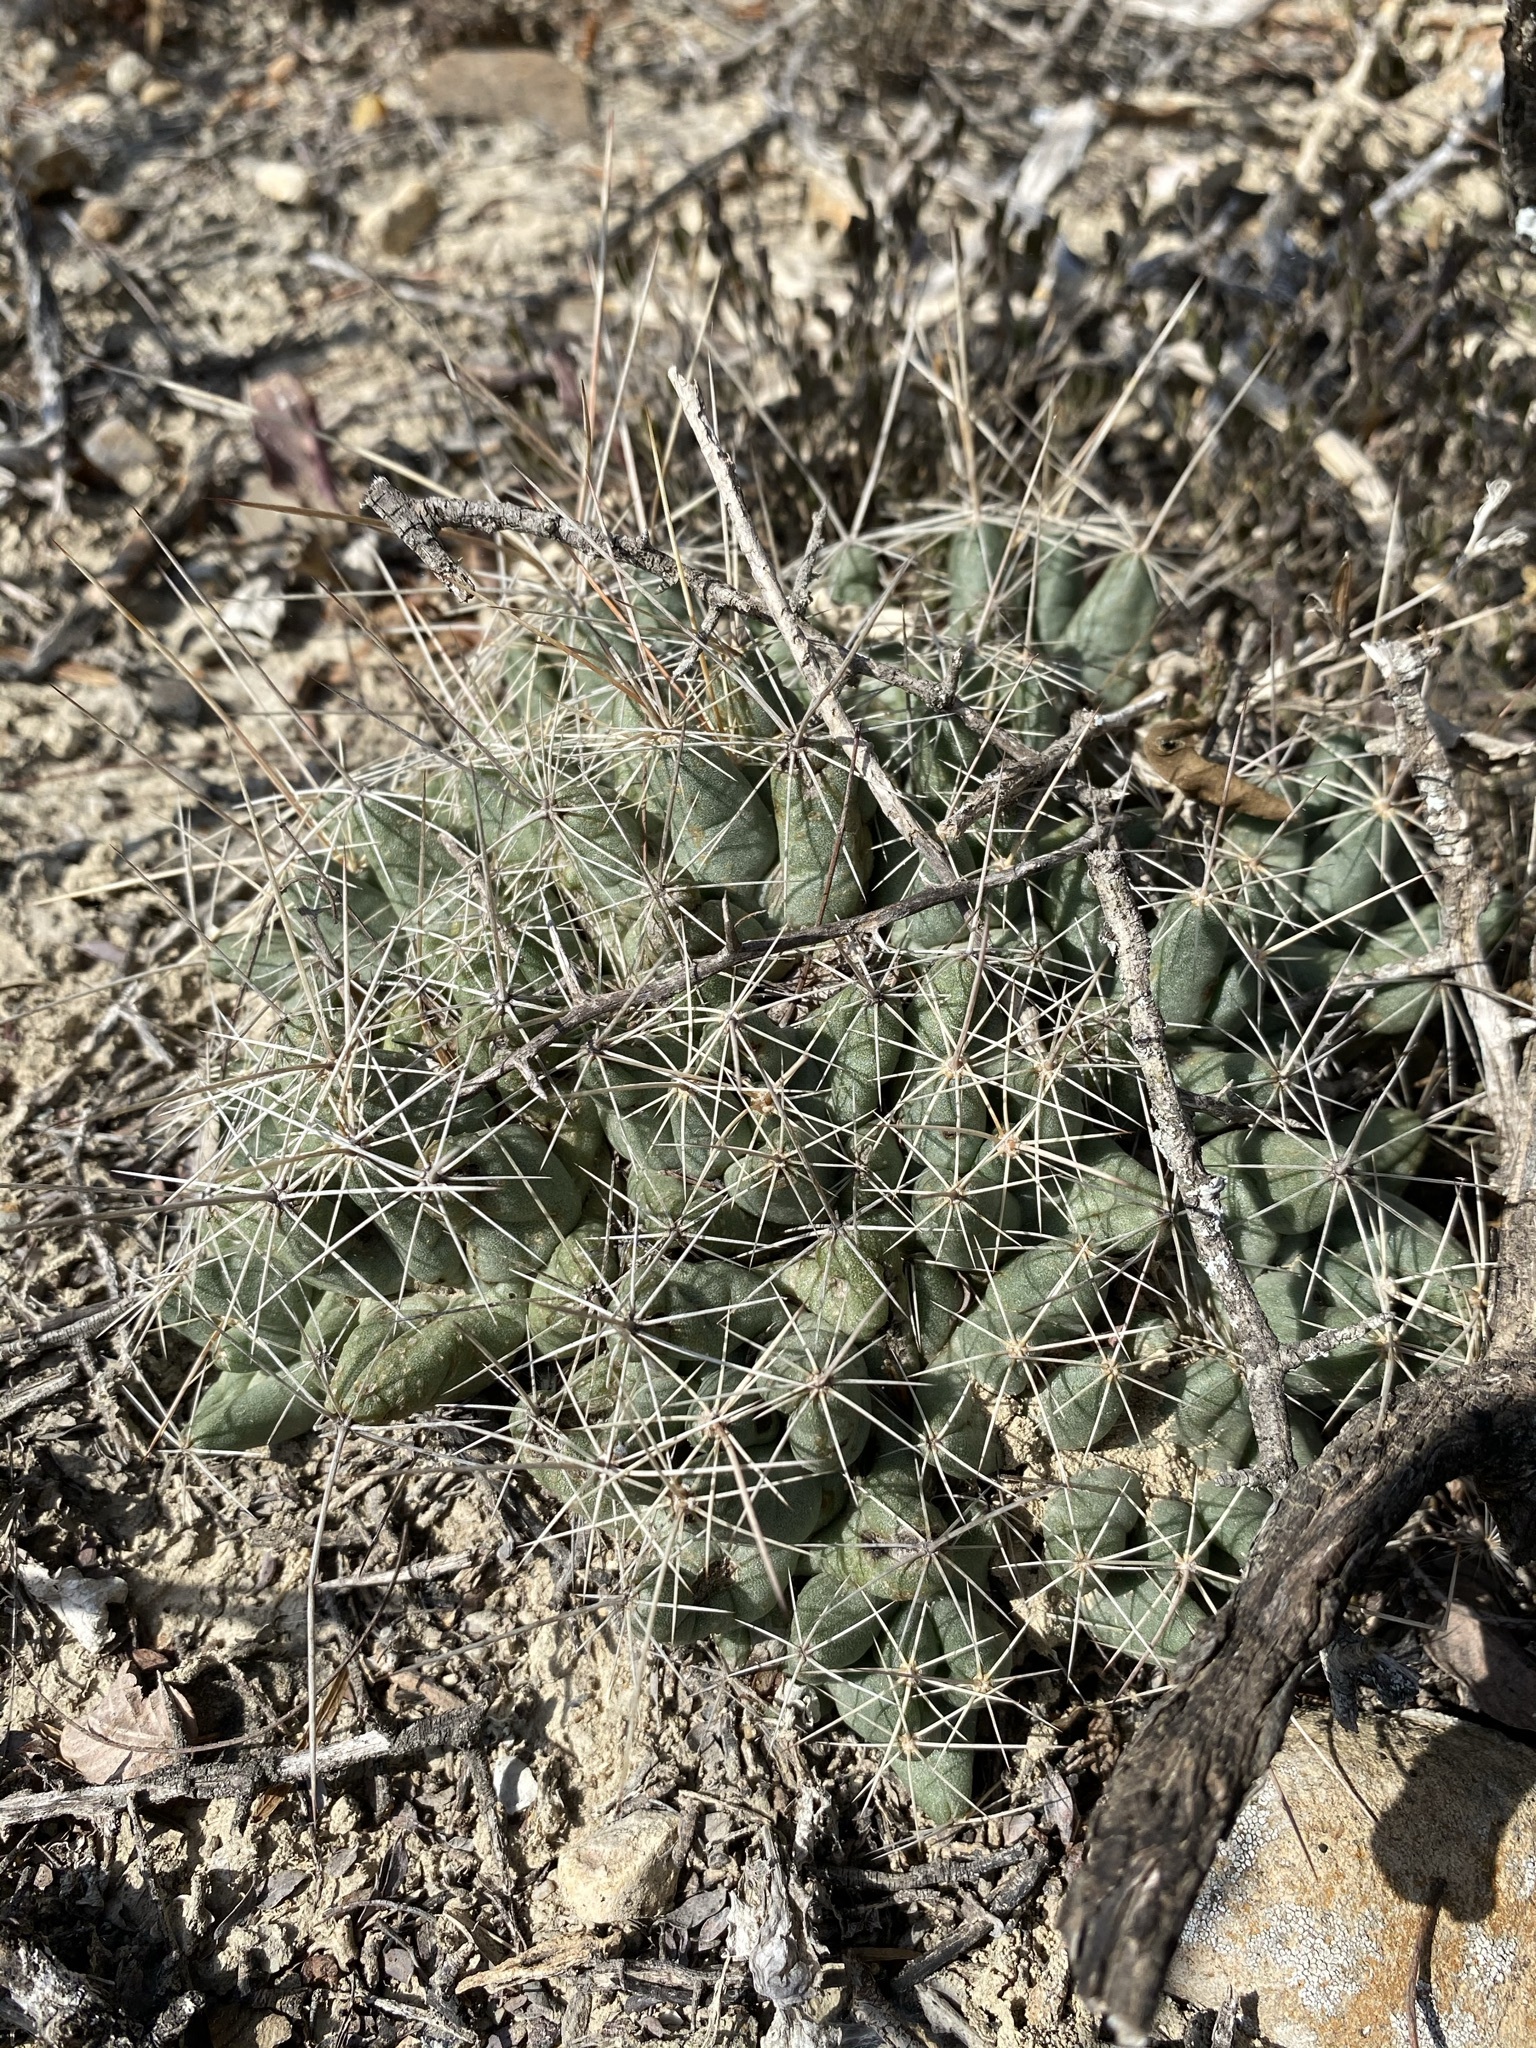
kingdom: Plantae
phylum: Tracheophyta
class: Magnoliopsida
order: Caryophyllales
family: Cactaceae
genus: Pelecyphora
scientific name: Pelecyphora macromeris
